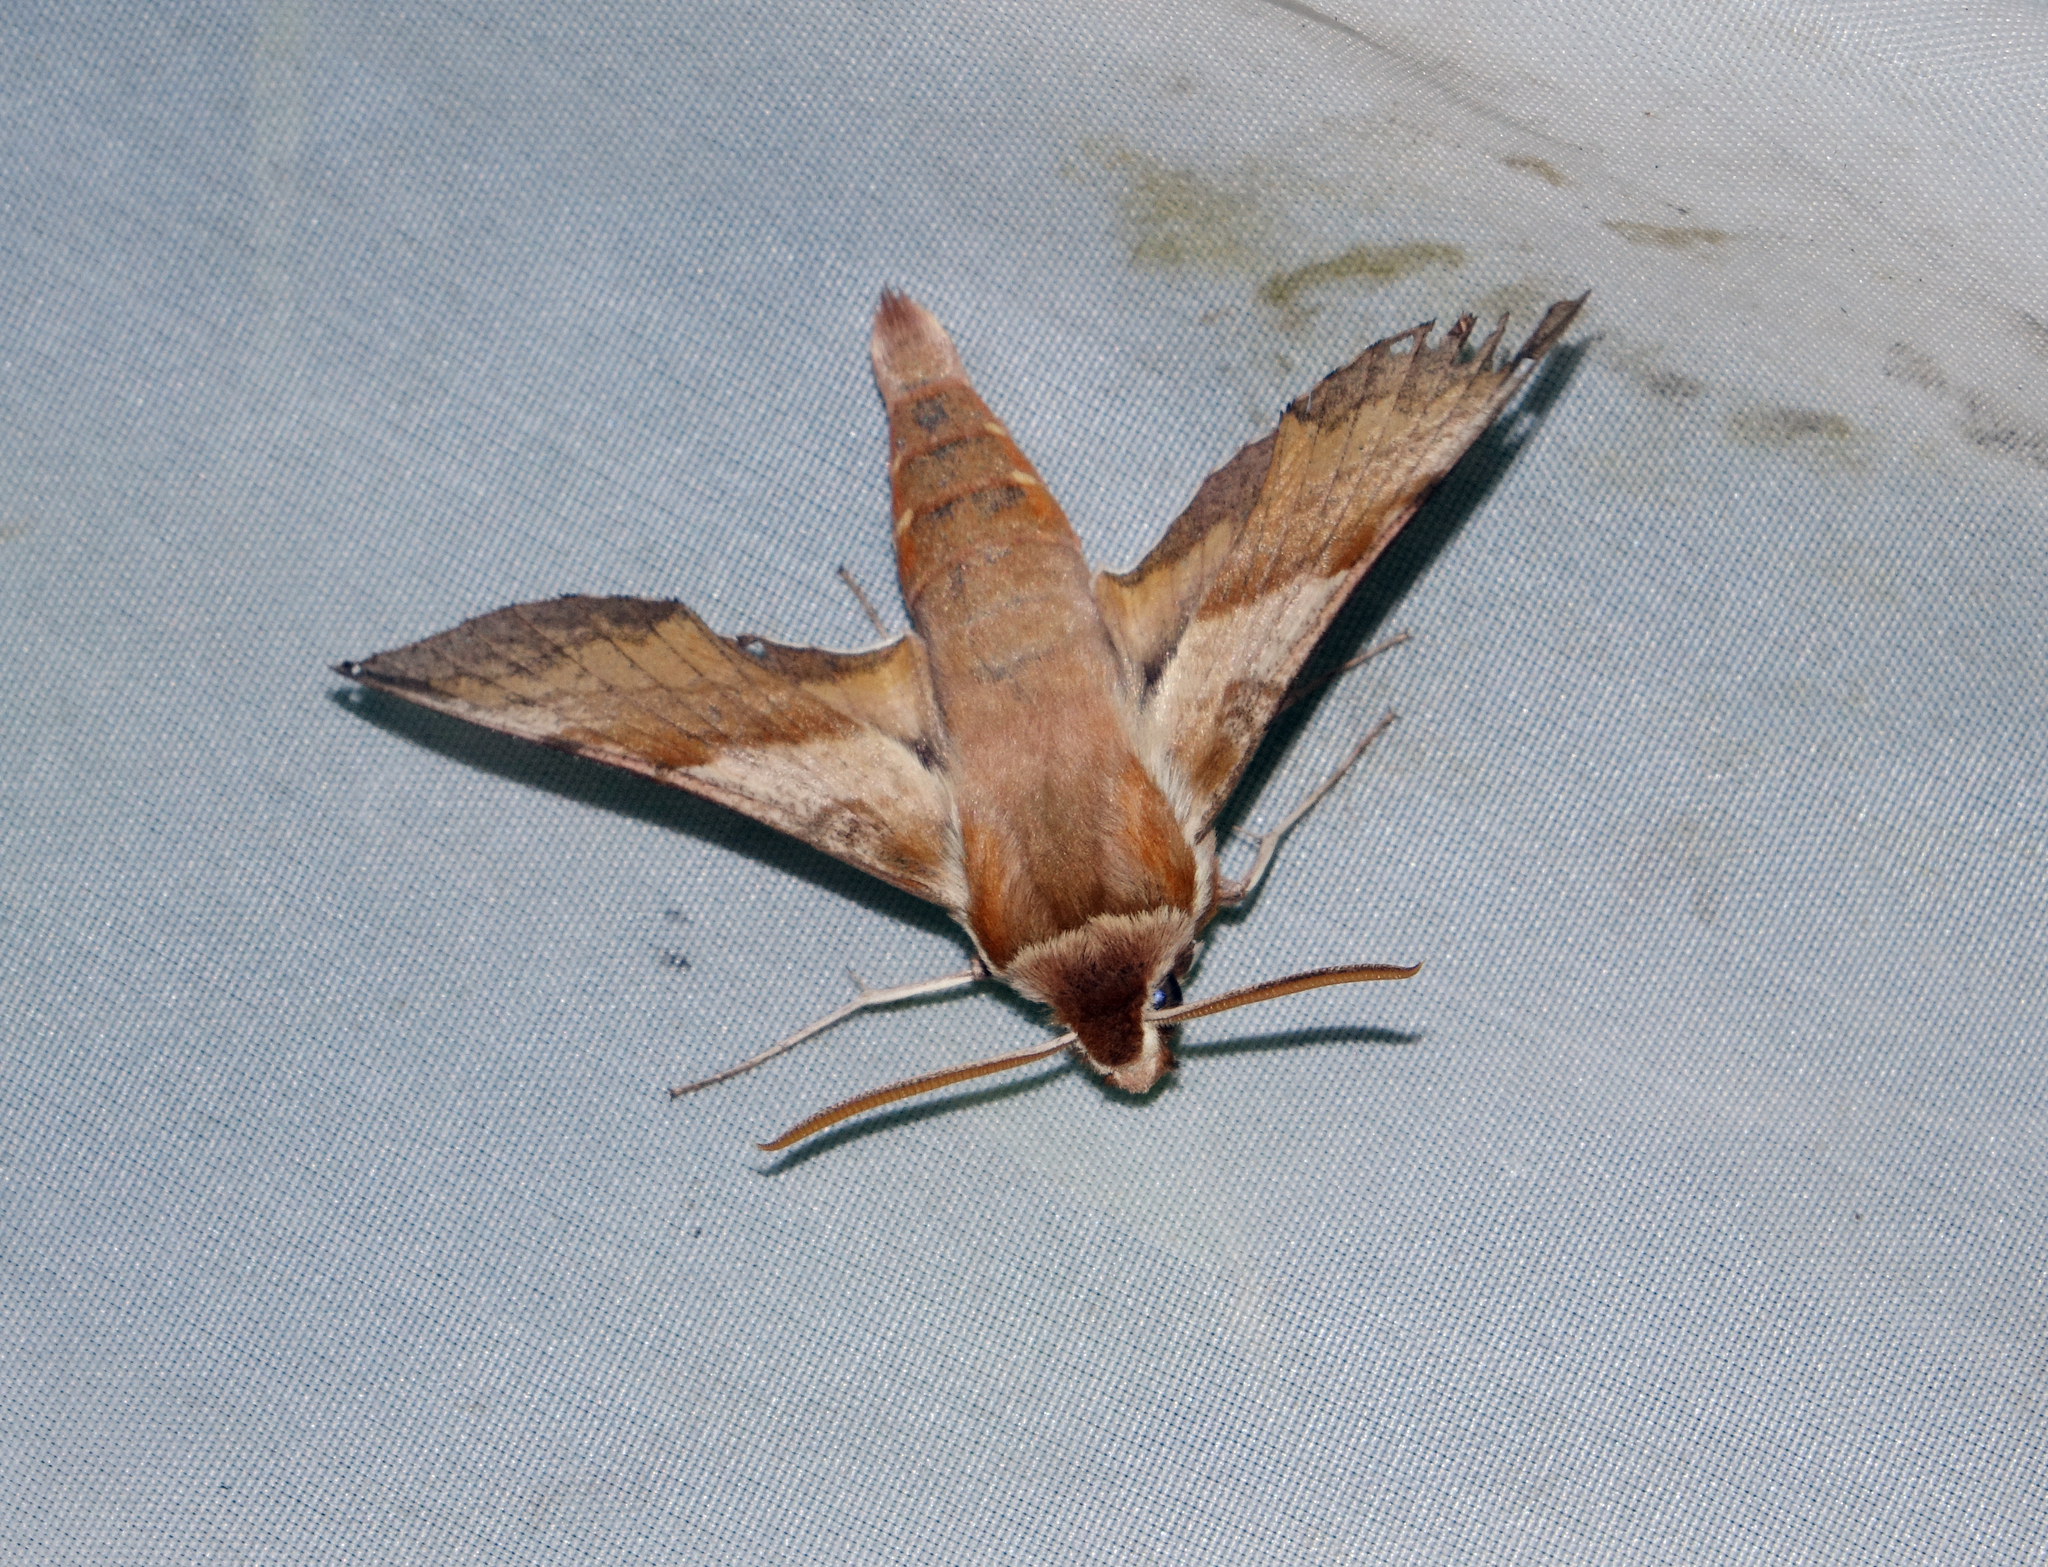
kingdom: Animalia
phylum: Arthropoda
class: Insecta
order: Lepidoptera
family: Sphingidae
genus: Deilephila
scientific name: Deilephila porcellus
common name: Small elephant hawk-moth
